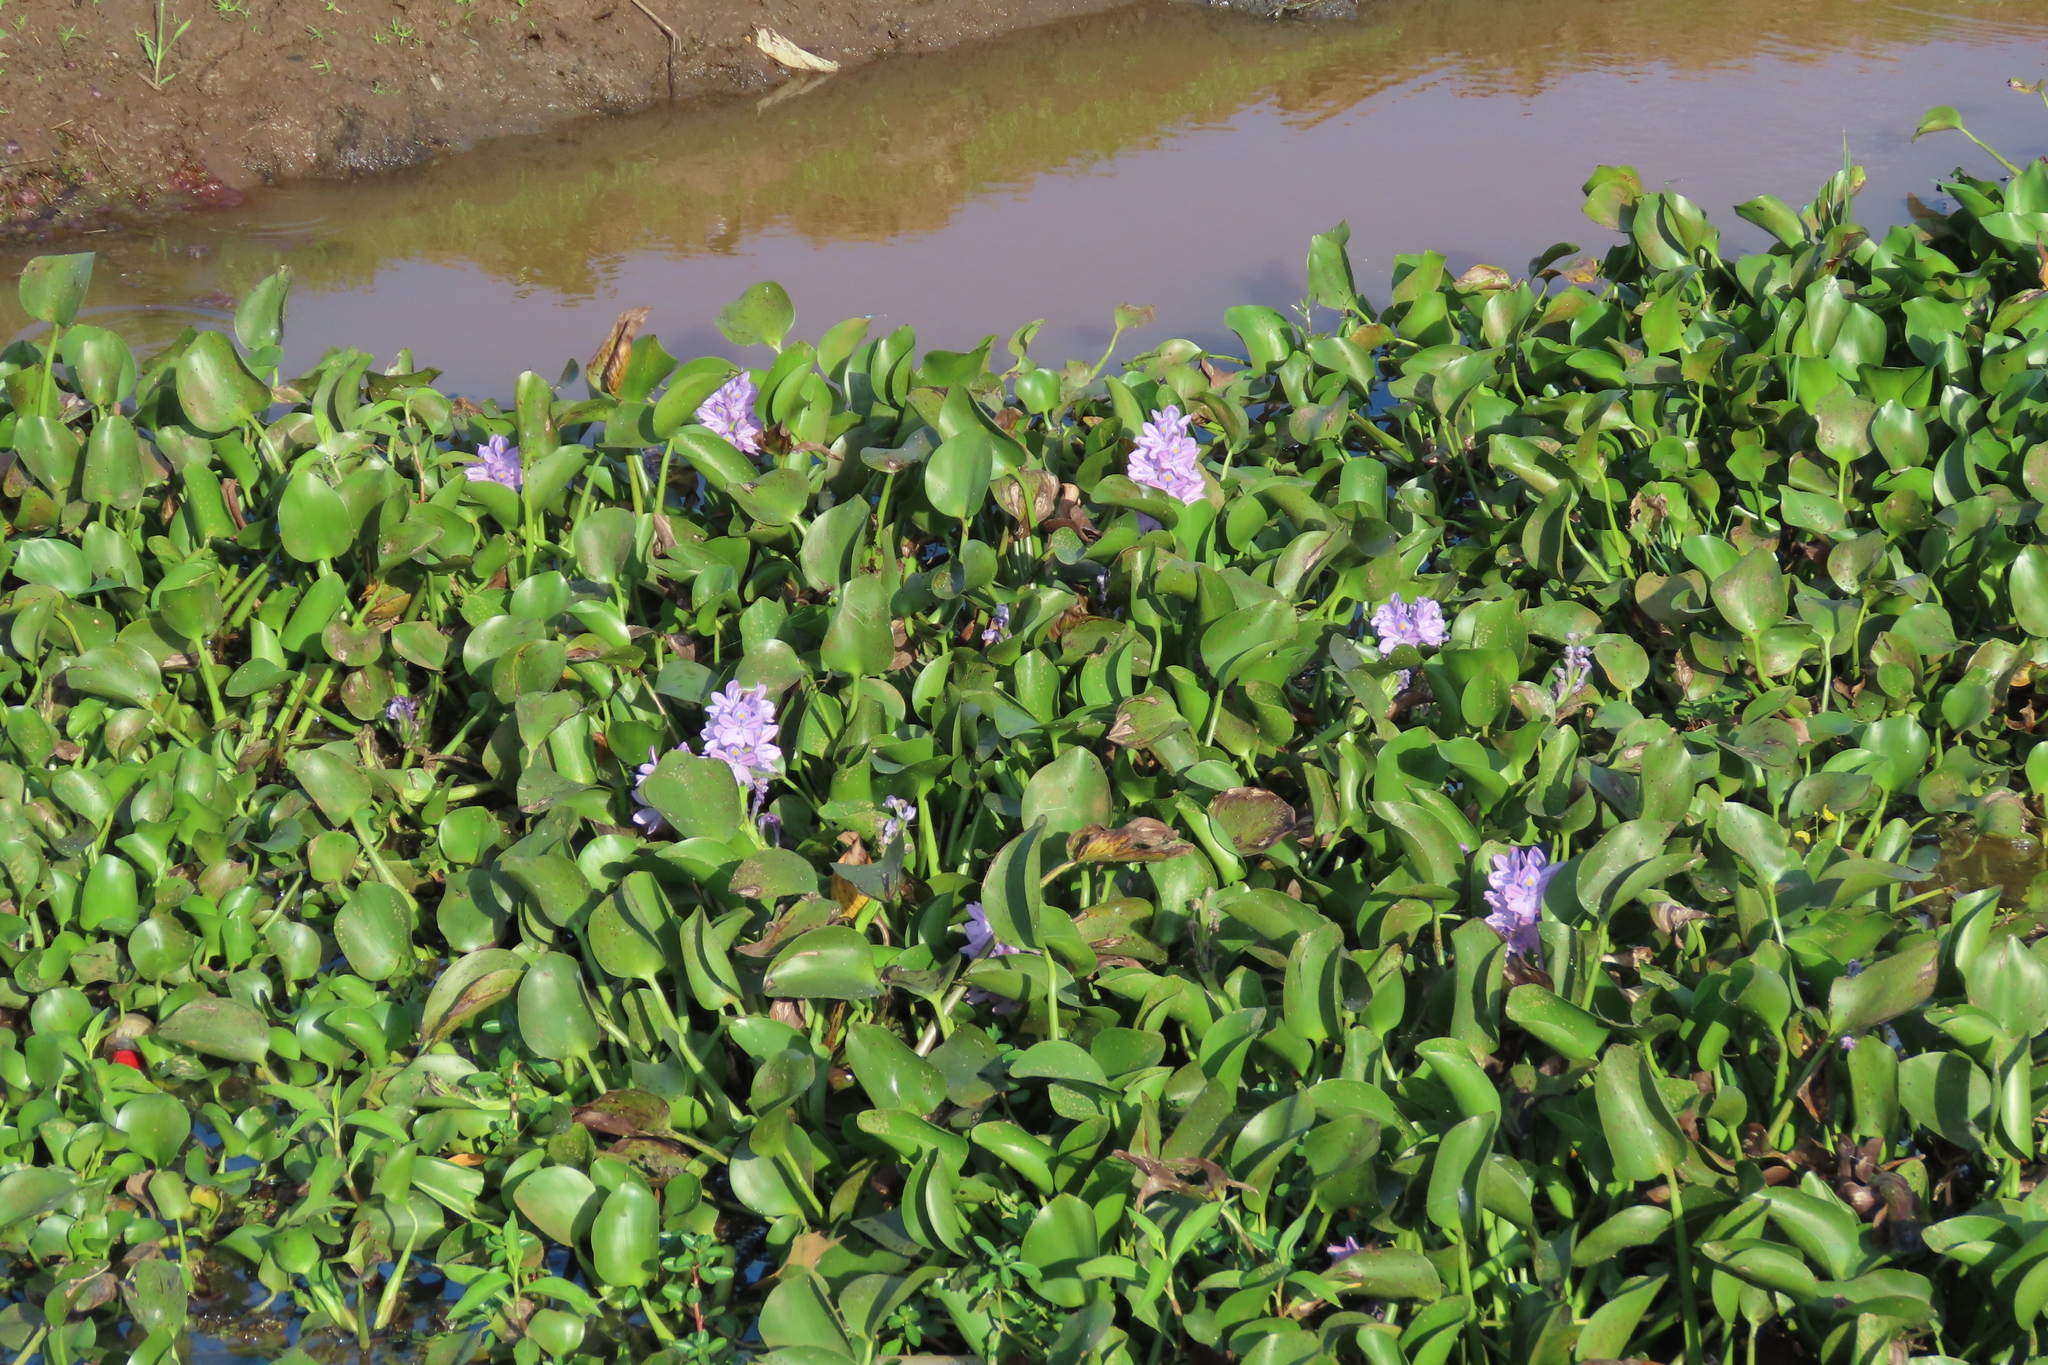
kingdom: Plantae
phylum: Tracheophyta
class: Liliopsida
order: Commelinales
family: Pontederiaceae
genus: Pontederia
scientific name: Pontederia crassipes
